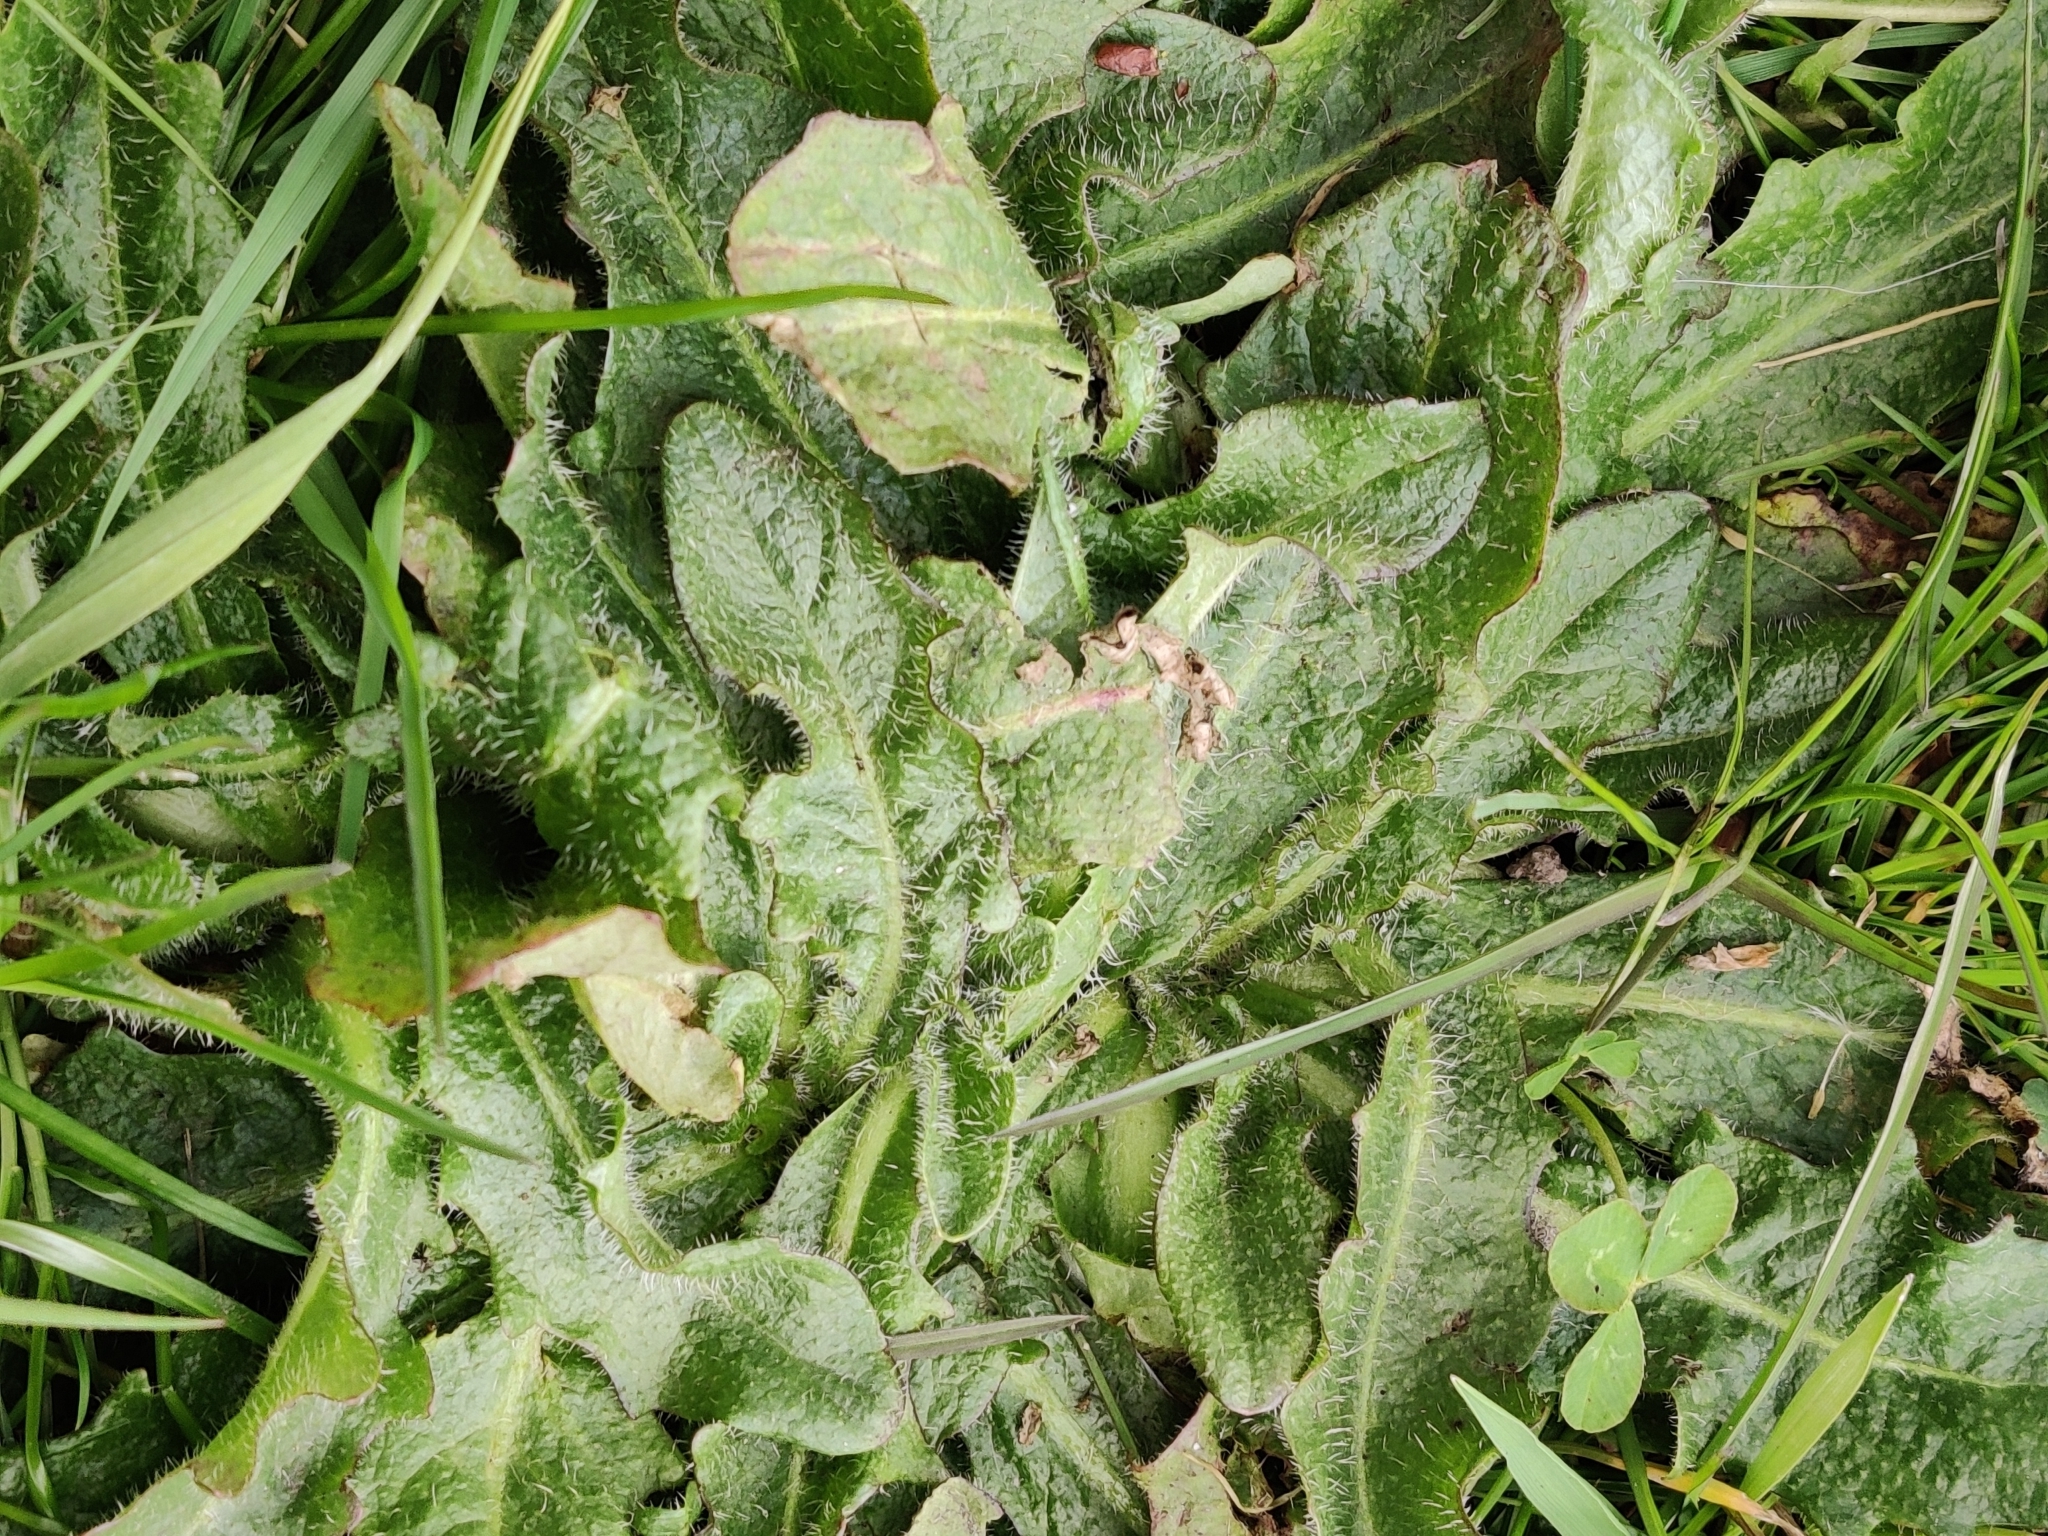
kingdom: Plantae
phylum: Tracheophyta
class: Magnoliopsida
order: Asterales
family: Asteraceae
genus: Hypochaeris
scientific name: Hypochaeris radicata
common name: Flatweed
